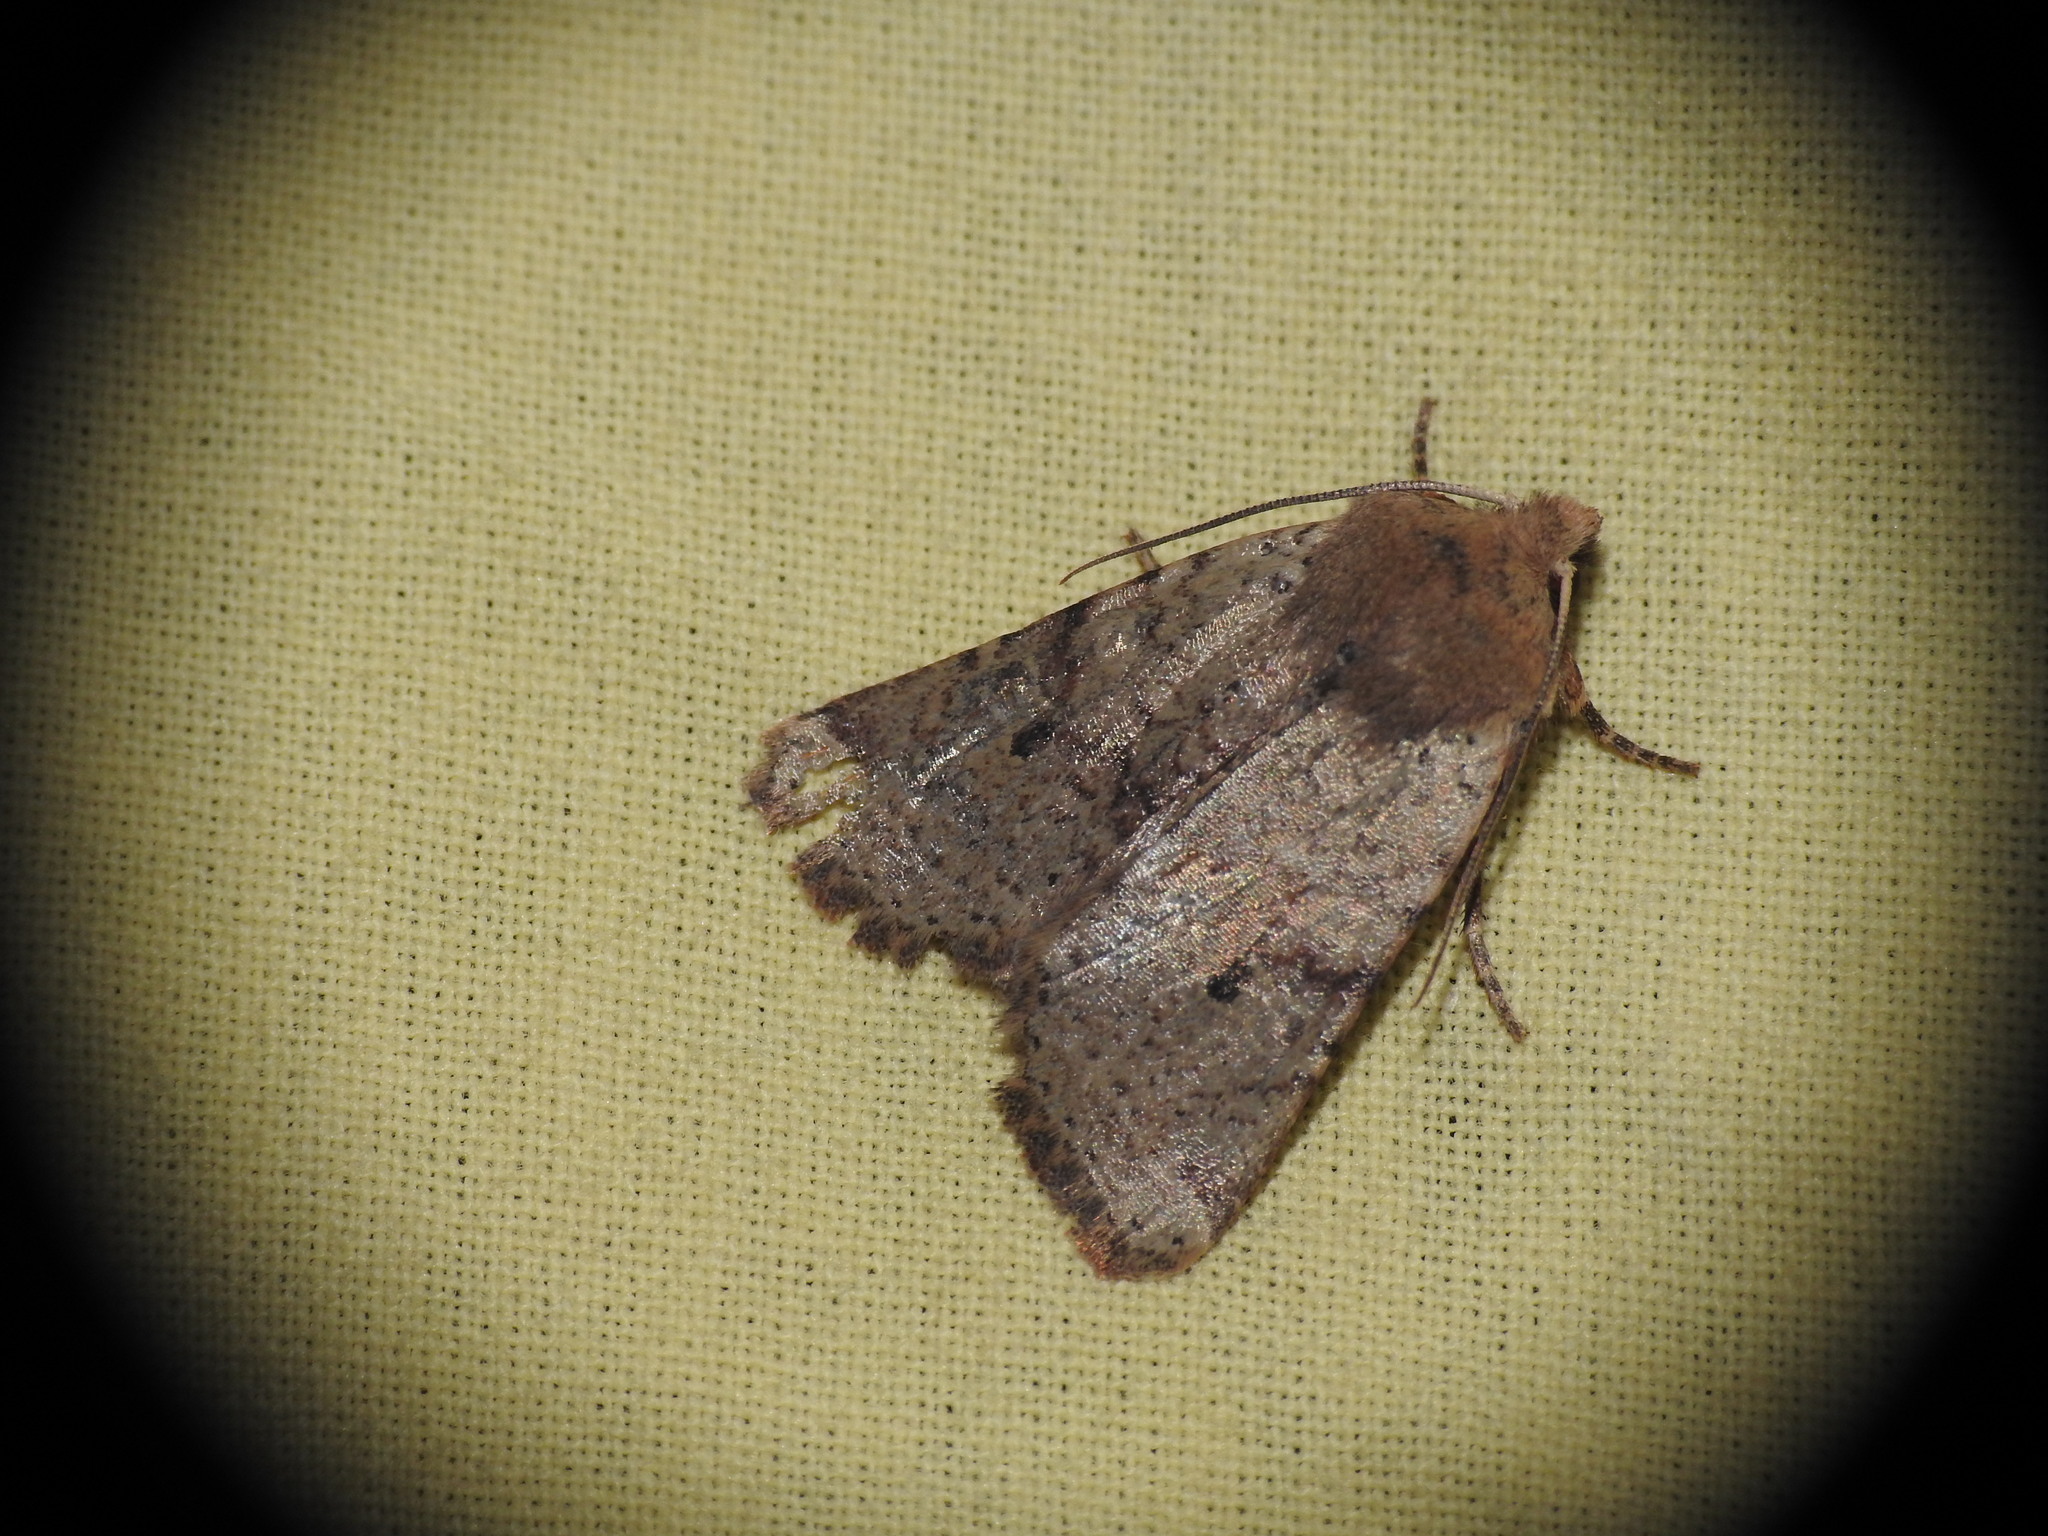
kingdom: Animalia
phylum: Arthropoda
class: Insecta
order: Lepidoptera
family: Noctuidae
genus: Agrochola
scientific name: Agrochola ruticilla
